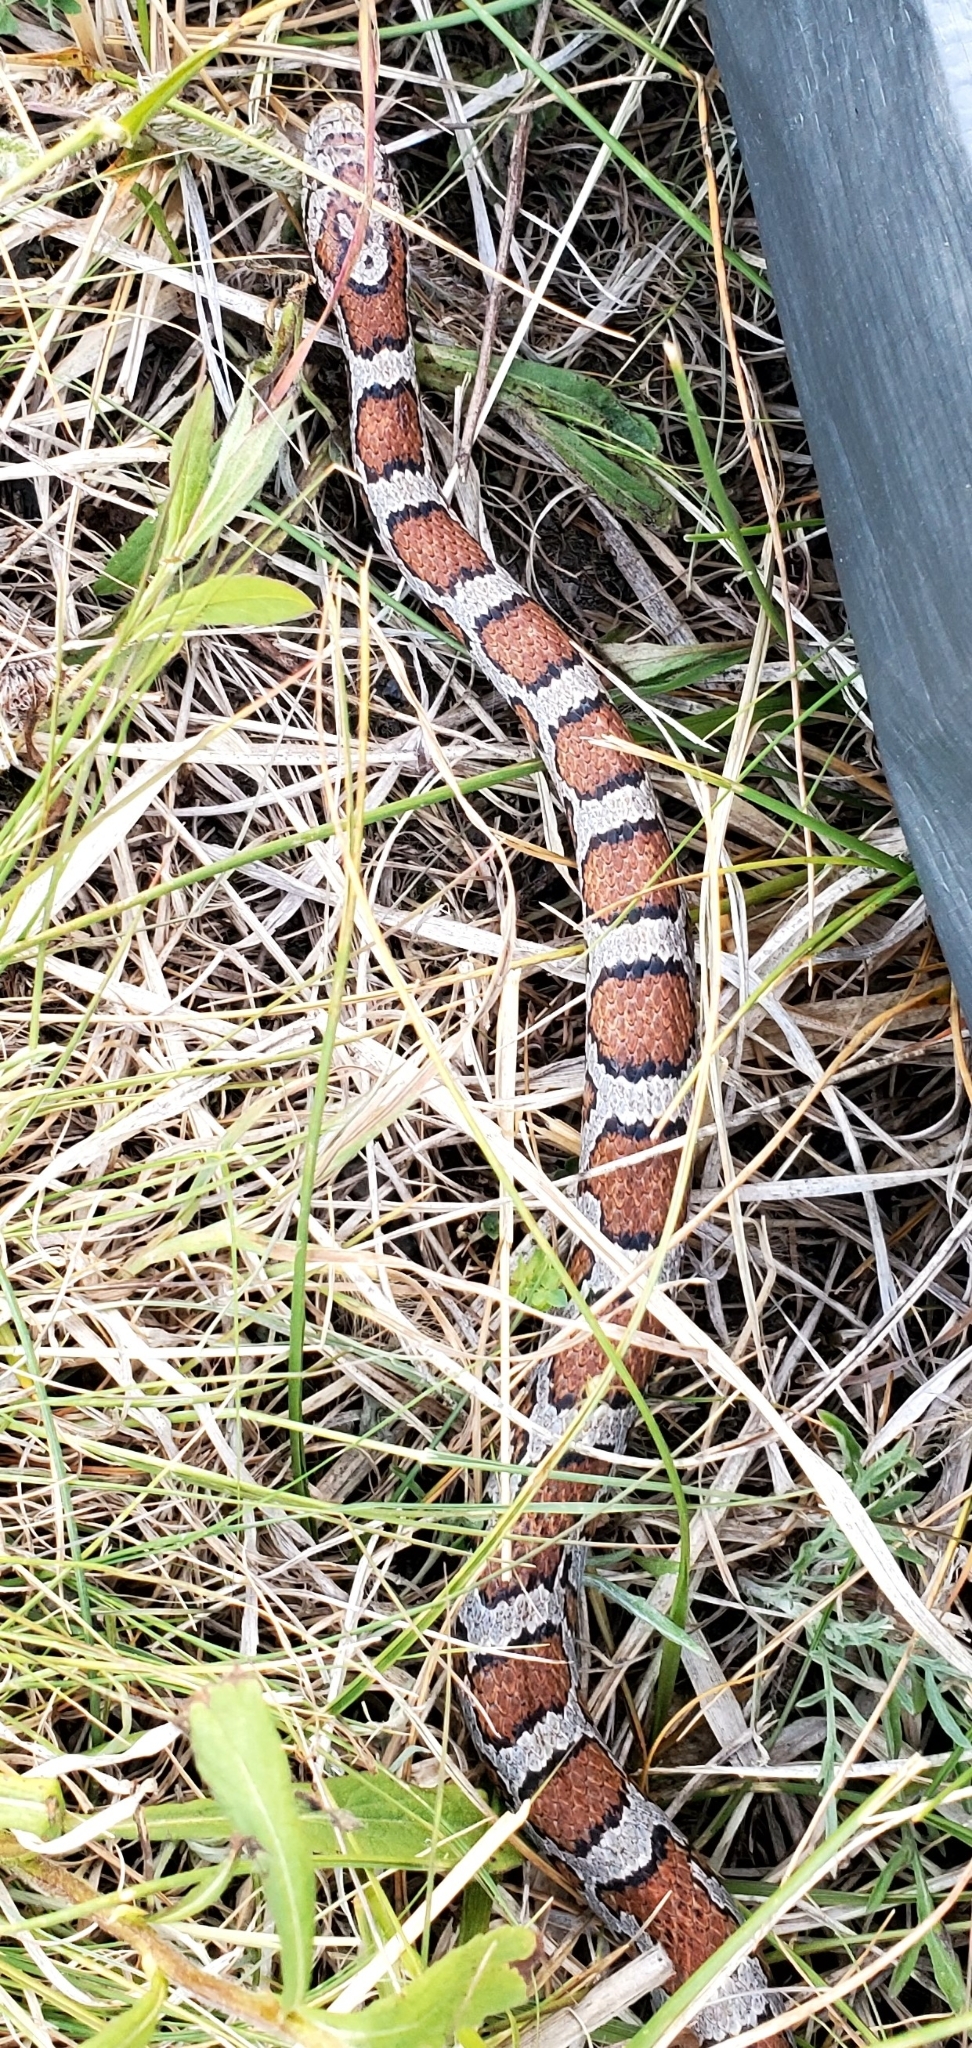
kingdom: Animalia
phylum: Chordata
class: Squamata
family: Colubridae
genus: Lampropeltis
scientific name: Lampropeltis triangulum
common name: Eastern milksnake
